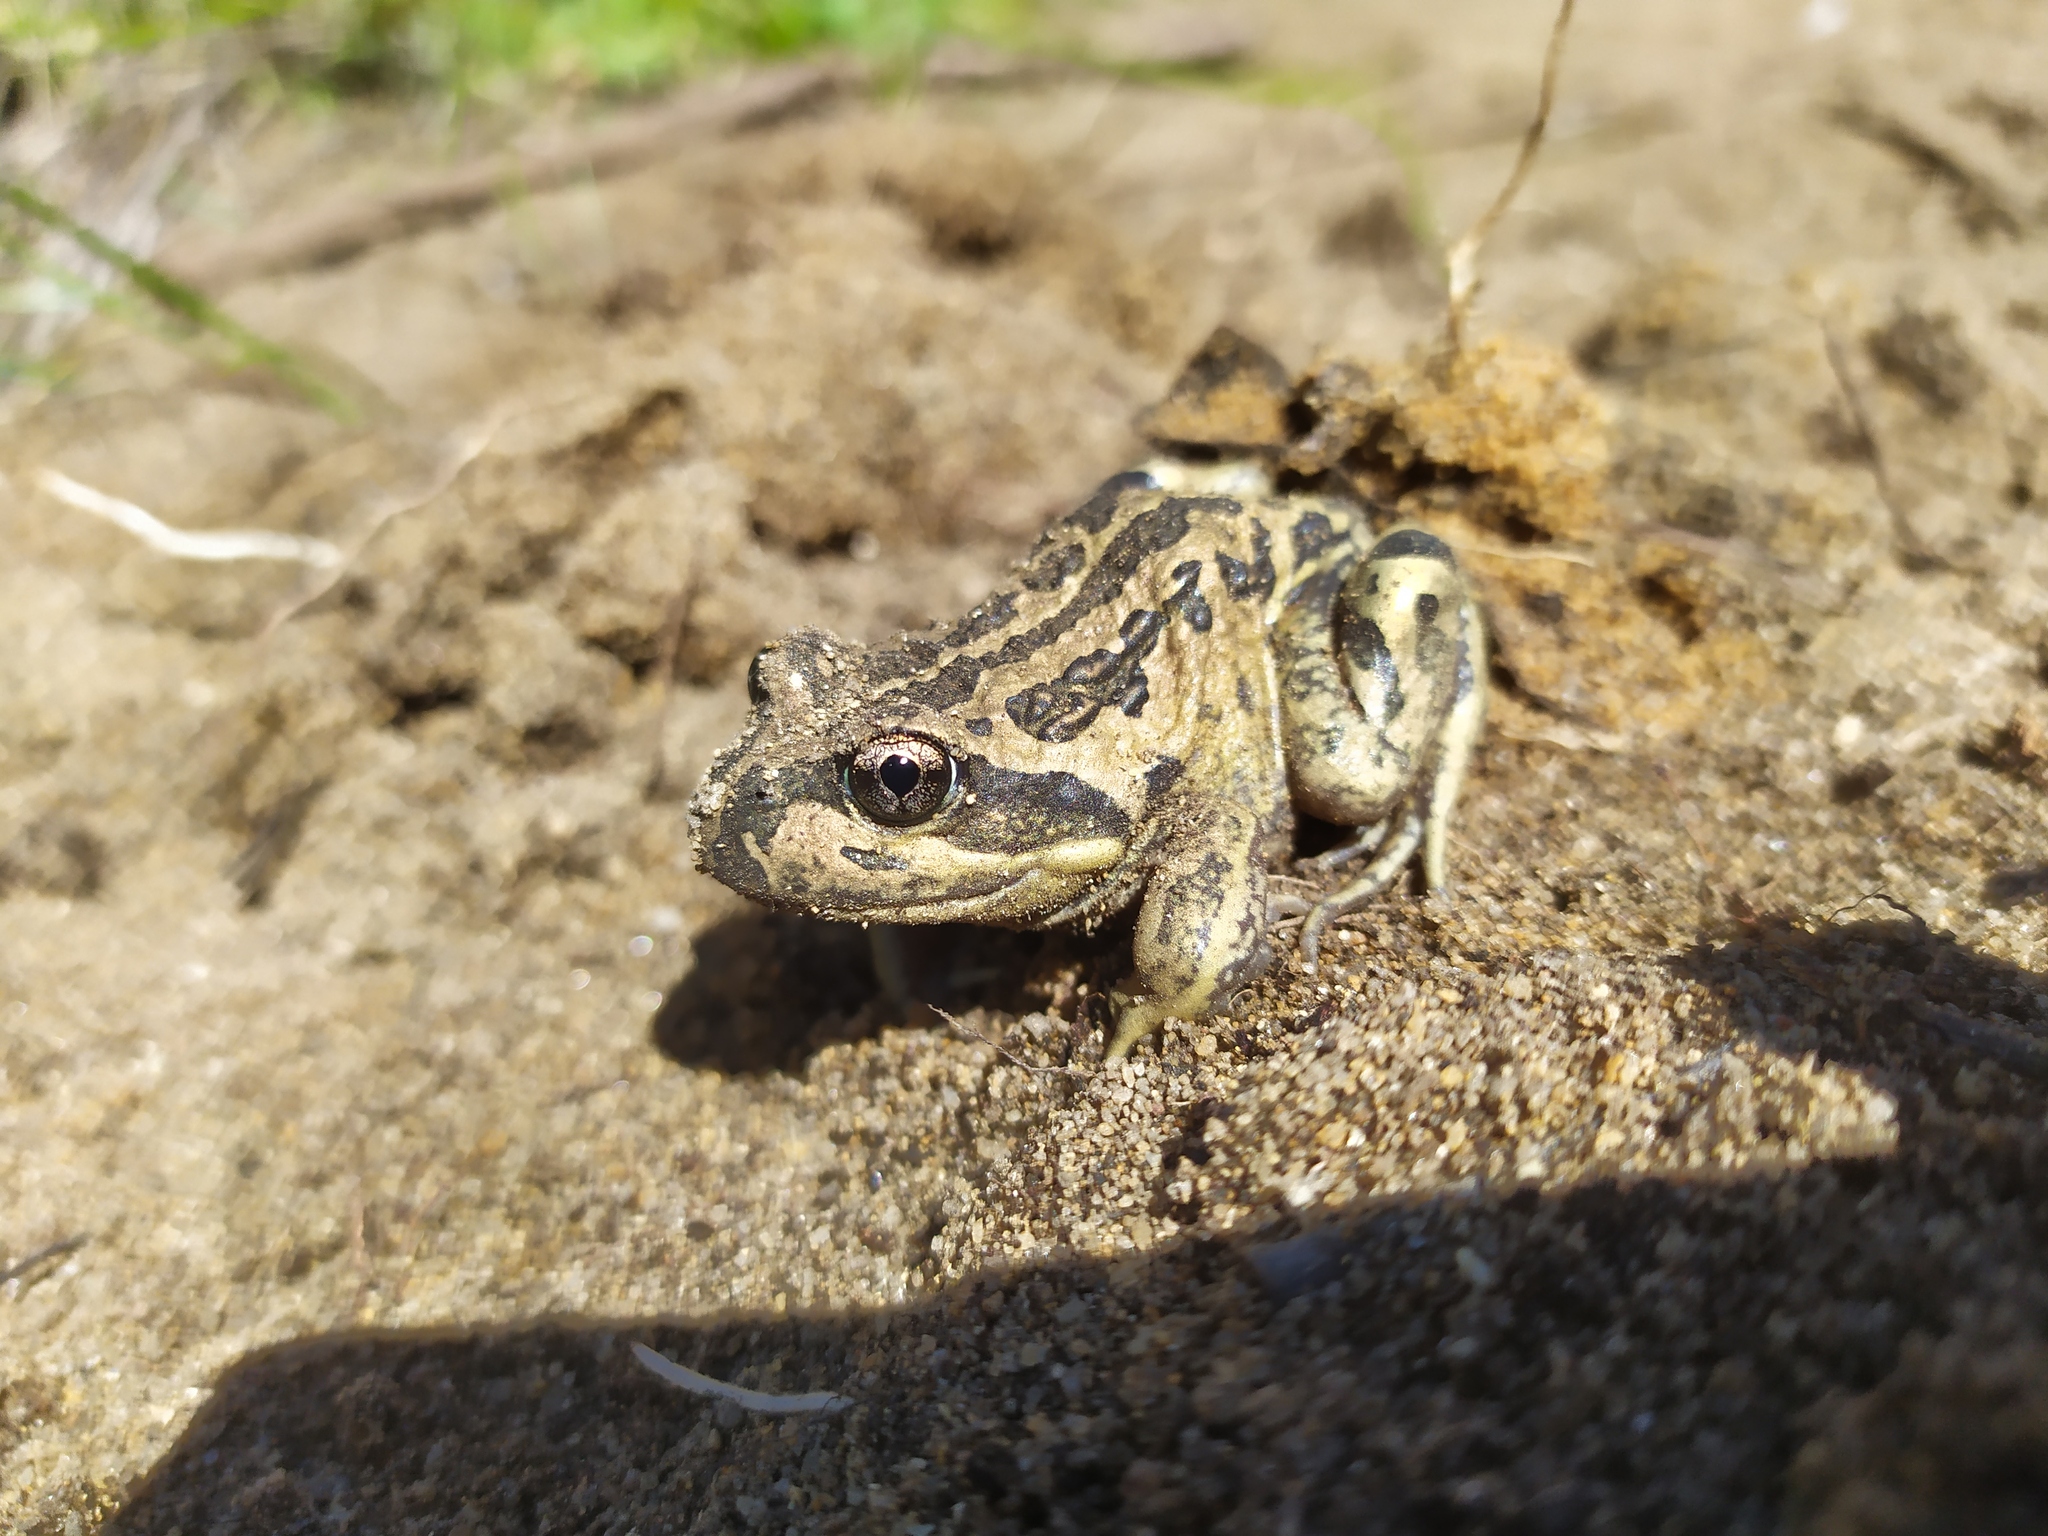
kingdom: Animalia
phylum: Chordata
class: Amphibia
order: Anura
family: Limnodynastidae
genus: Limnodynastes
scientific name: Limnodynastes dorsalis
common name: Banjo frog
